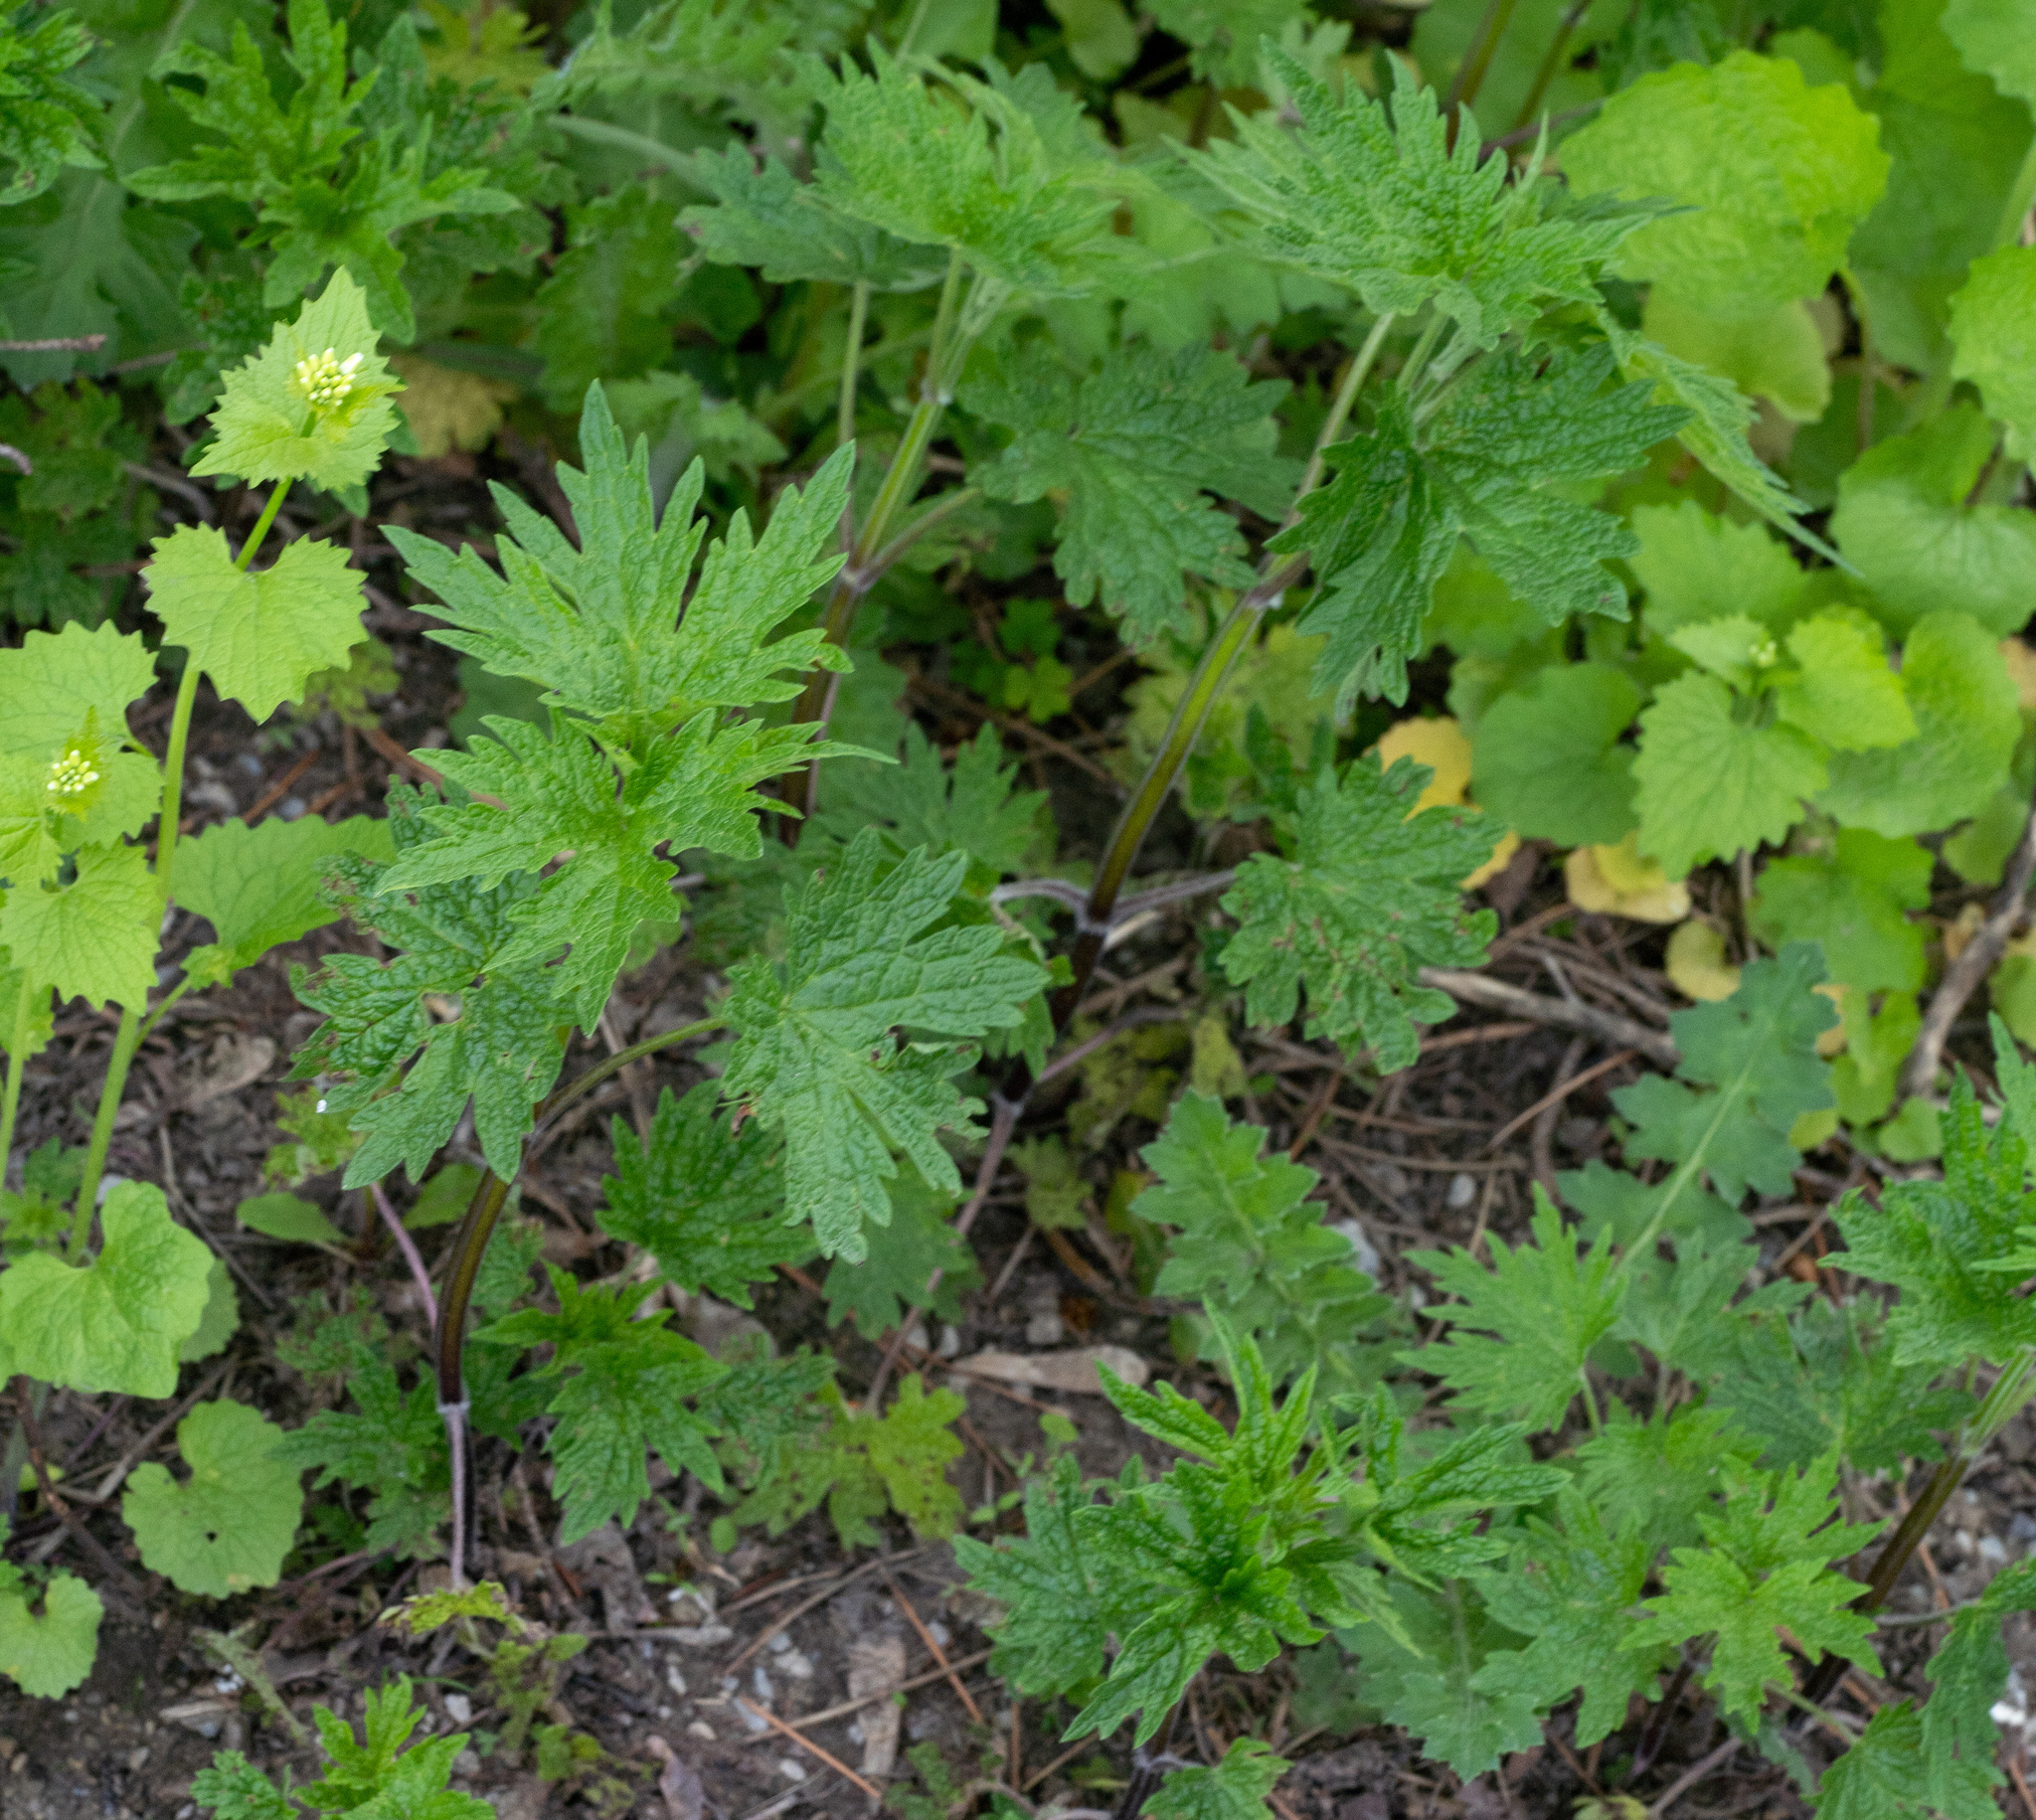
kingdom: Plantae
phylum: Tracheophyta
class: Magnoliopsida
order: Lamiales
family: Lamiaceae
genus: Leonurus
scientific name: Leonurus cardiaca
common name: Motherwort
